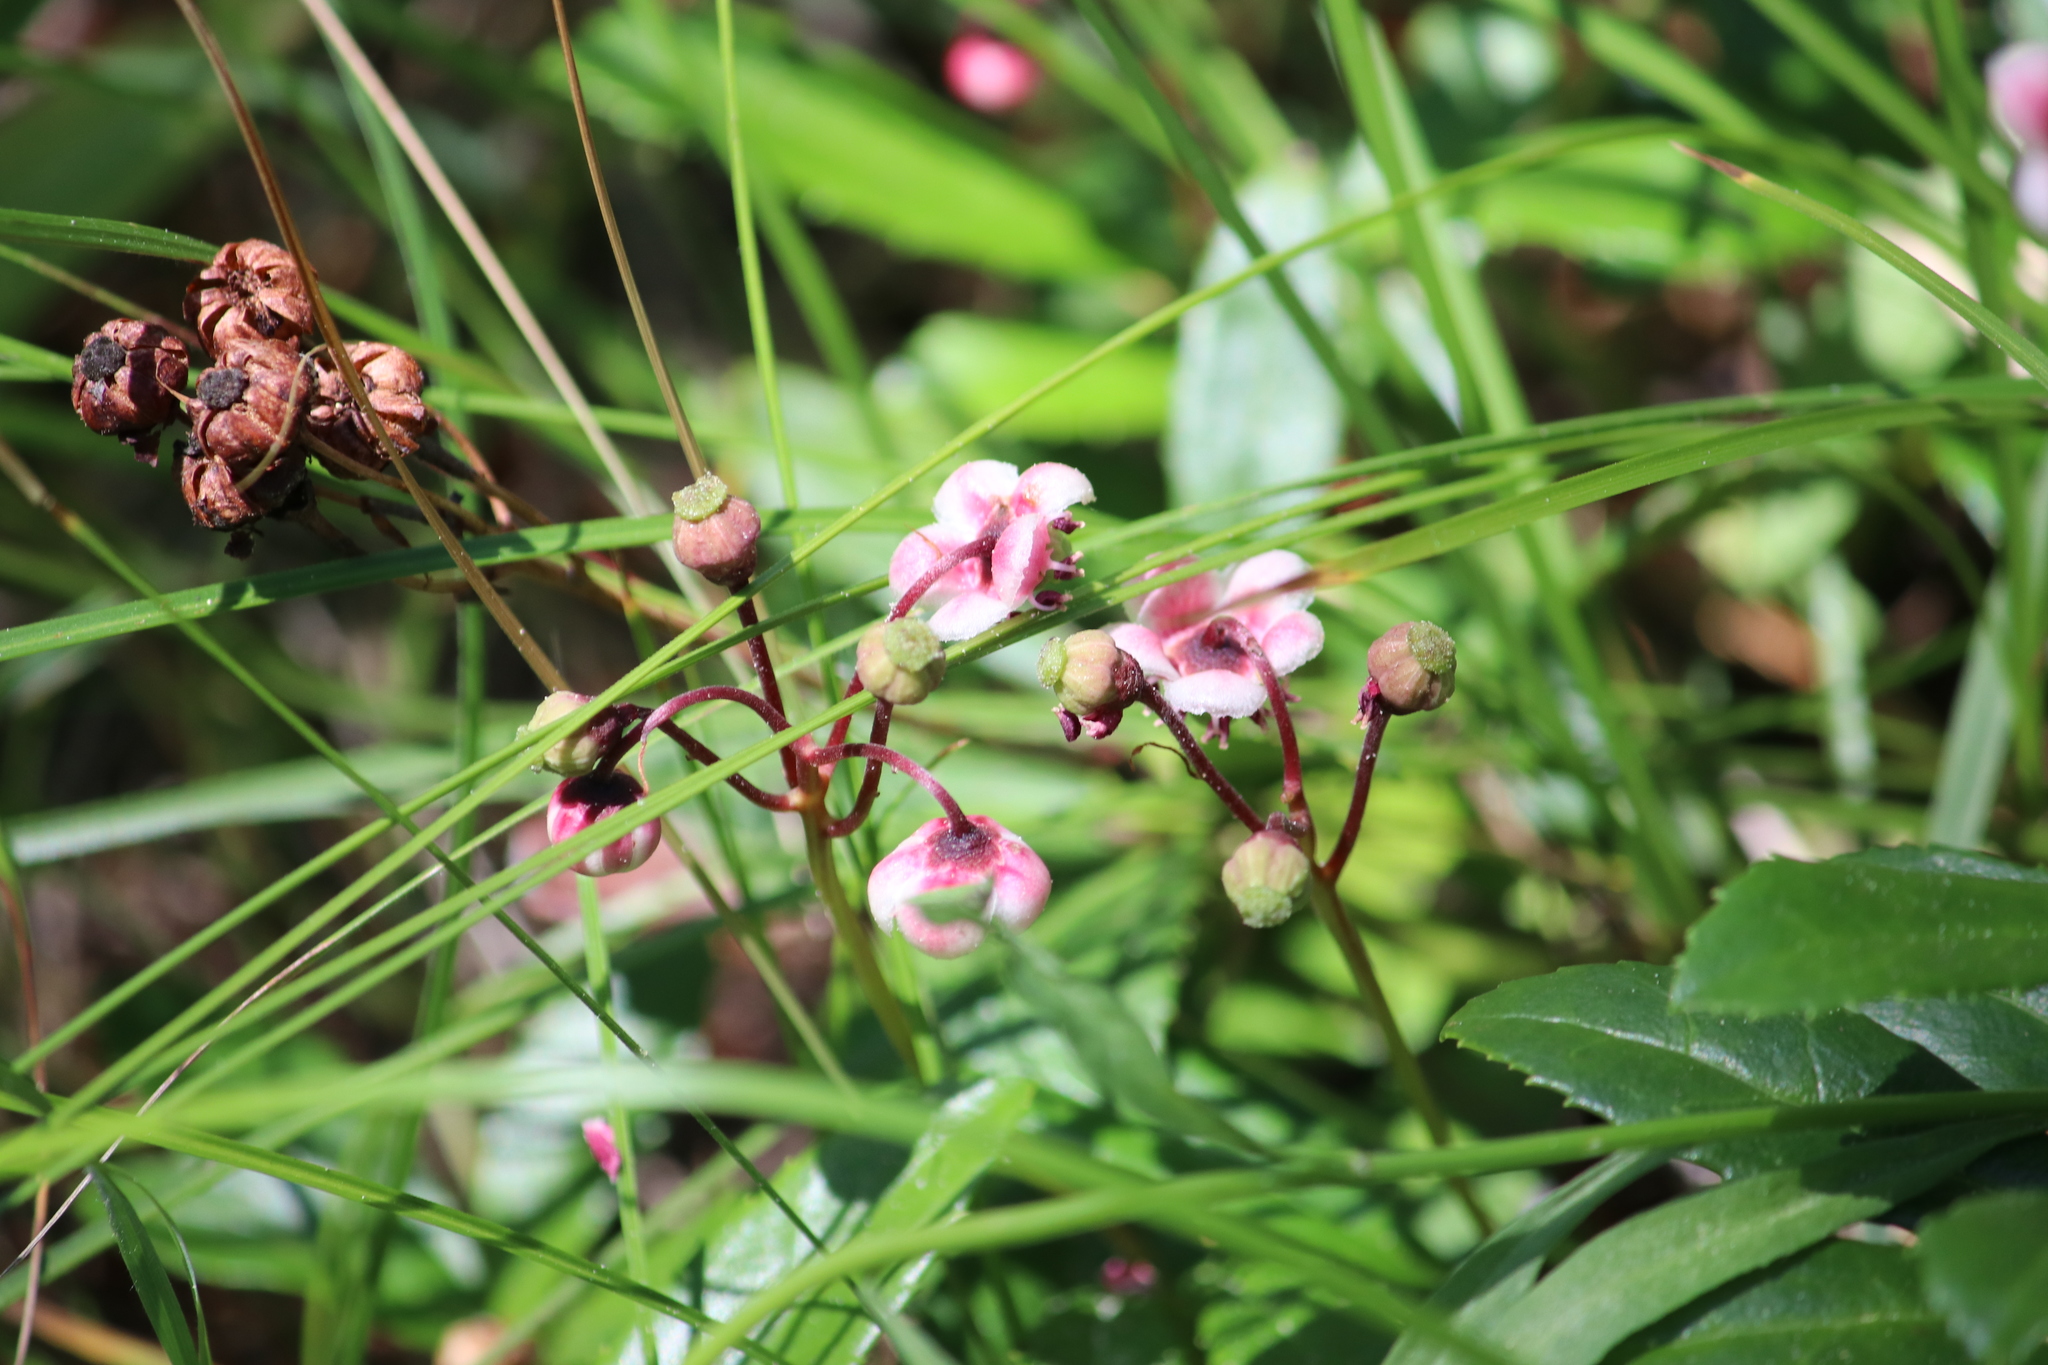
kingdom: Plantae
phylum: Tracheophyta
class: Magnoliopsida
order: Ericales
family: Ericaceae
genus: Chimaphila
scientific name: Chimaphila umbellata
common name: Pipsissewa
